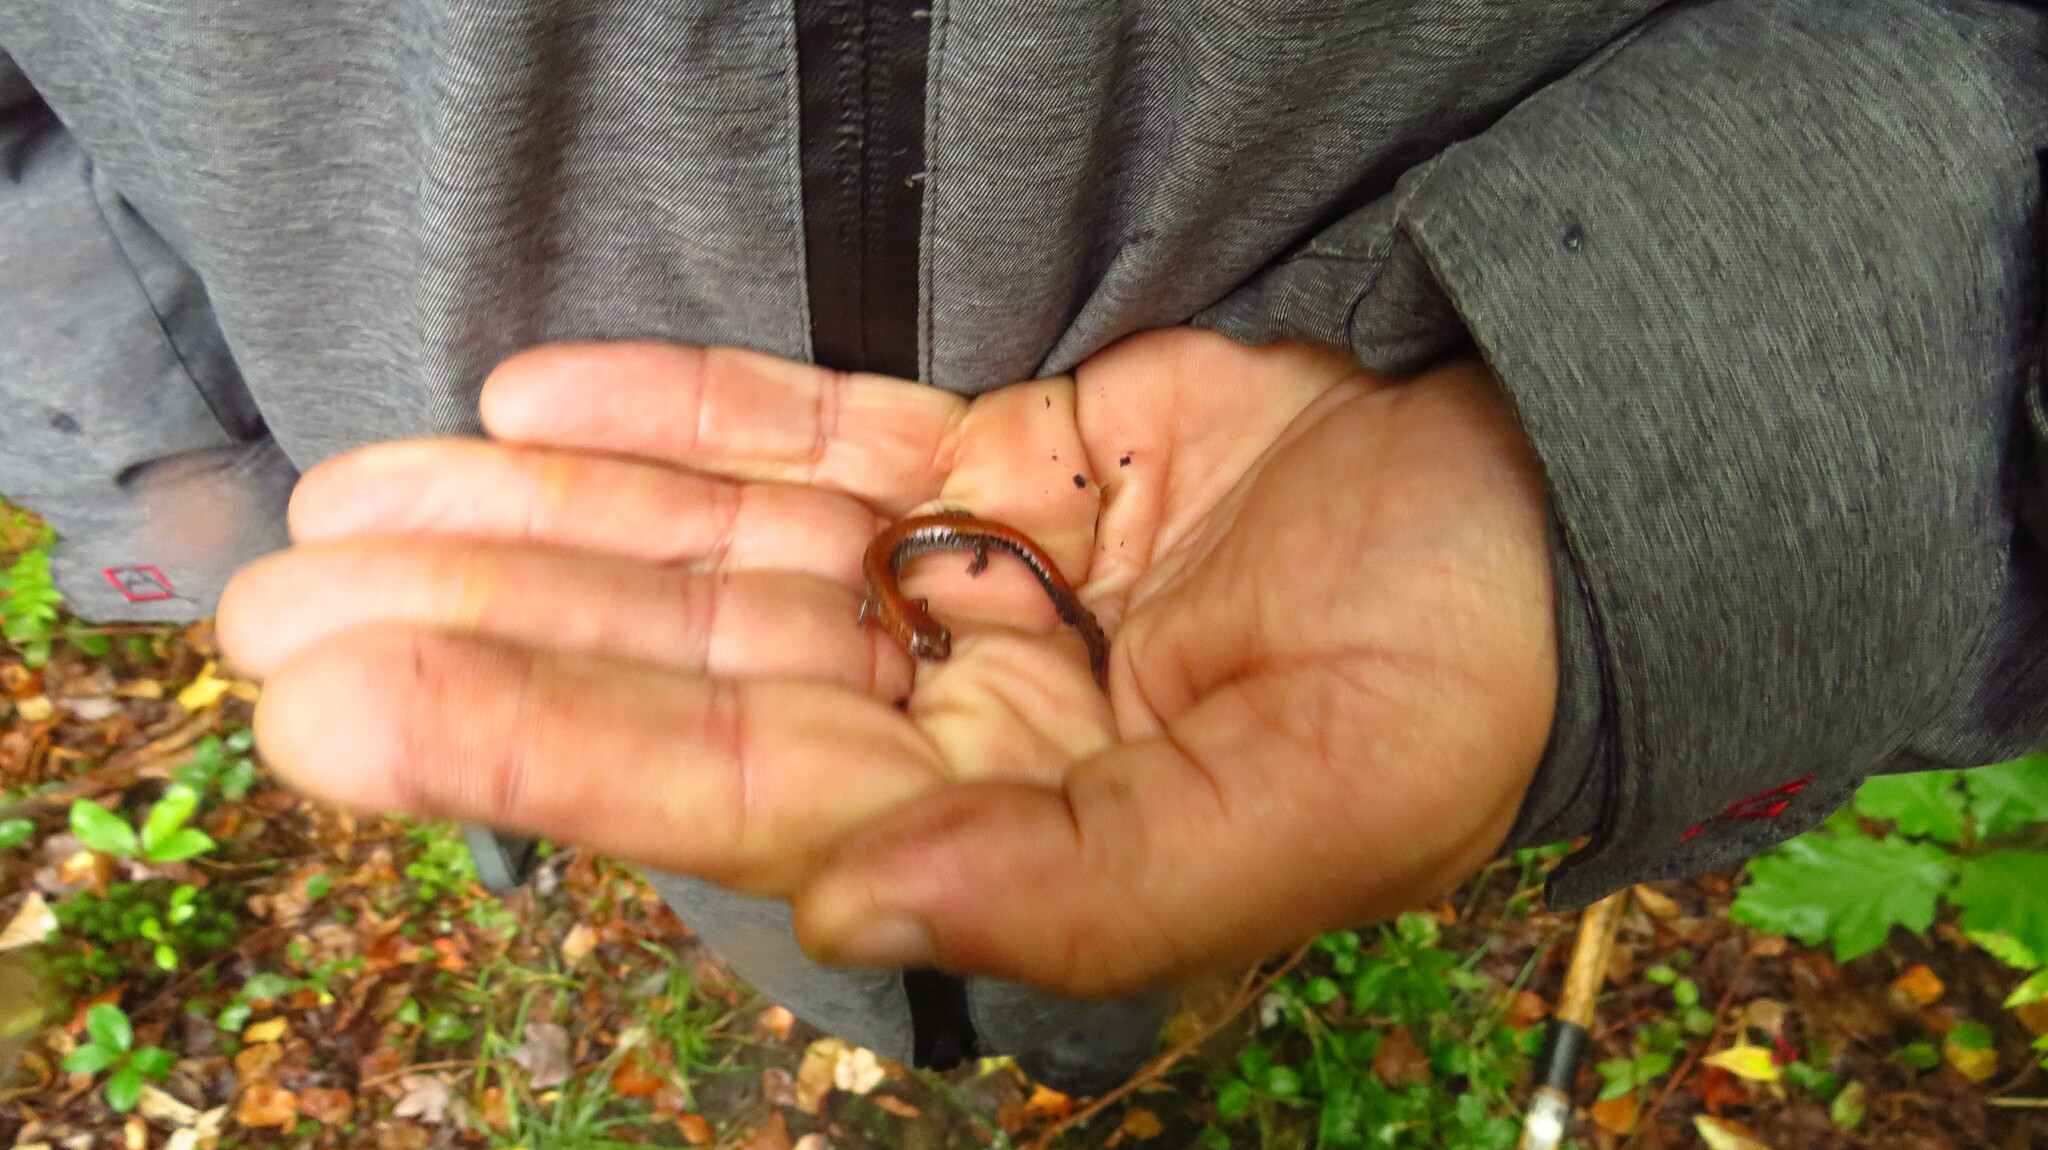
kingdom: Animalia
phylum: Chordata
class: Amphibia
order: Caudata
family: Plethodontidae
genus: Plethodon
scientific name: Plethodon cinereus
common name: Redback salamander
